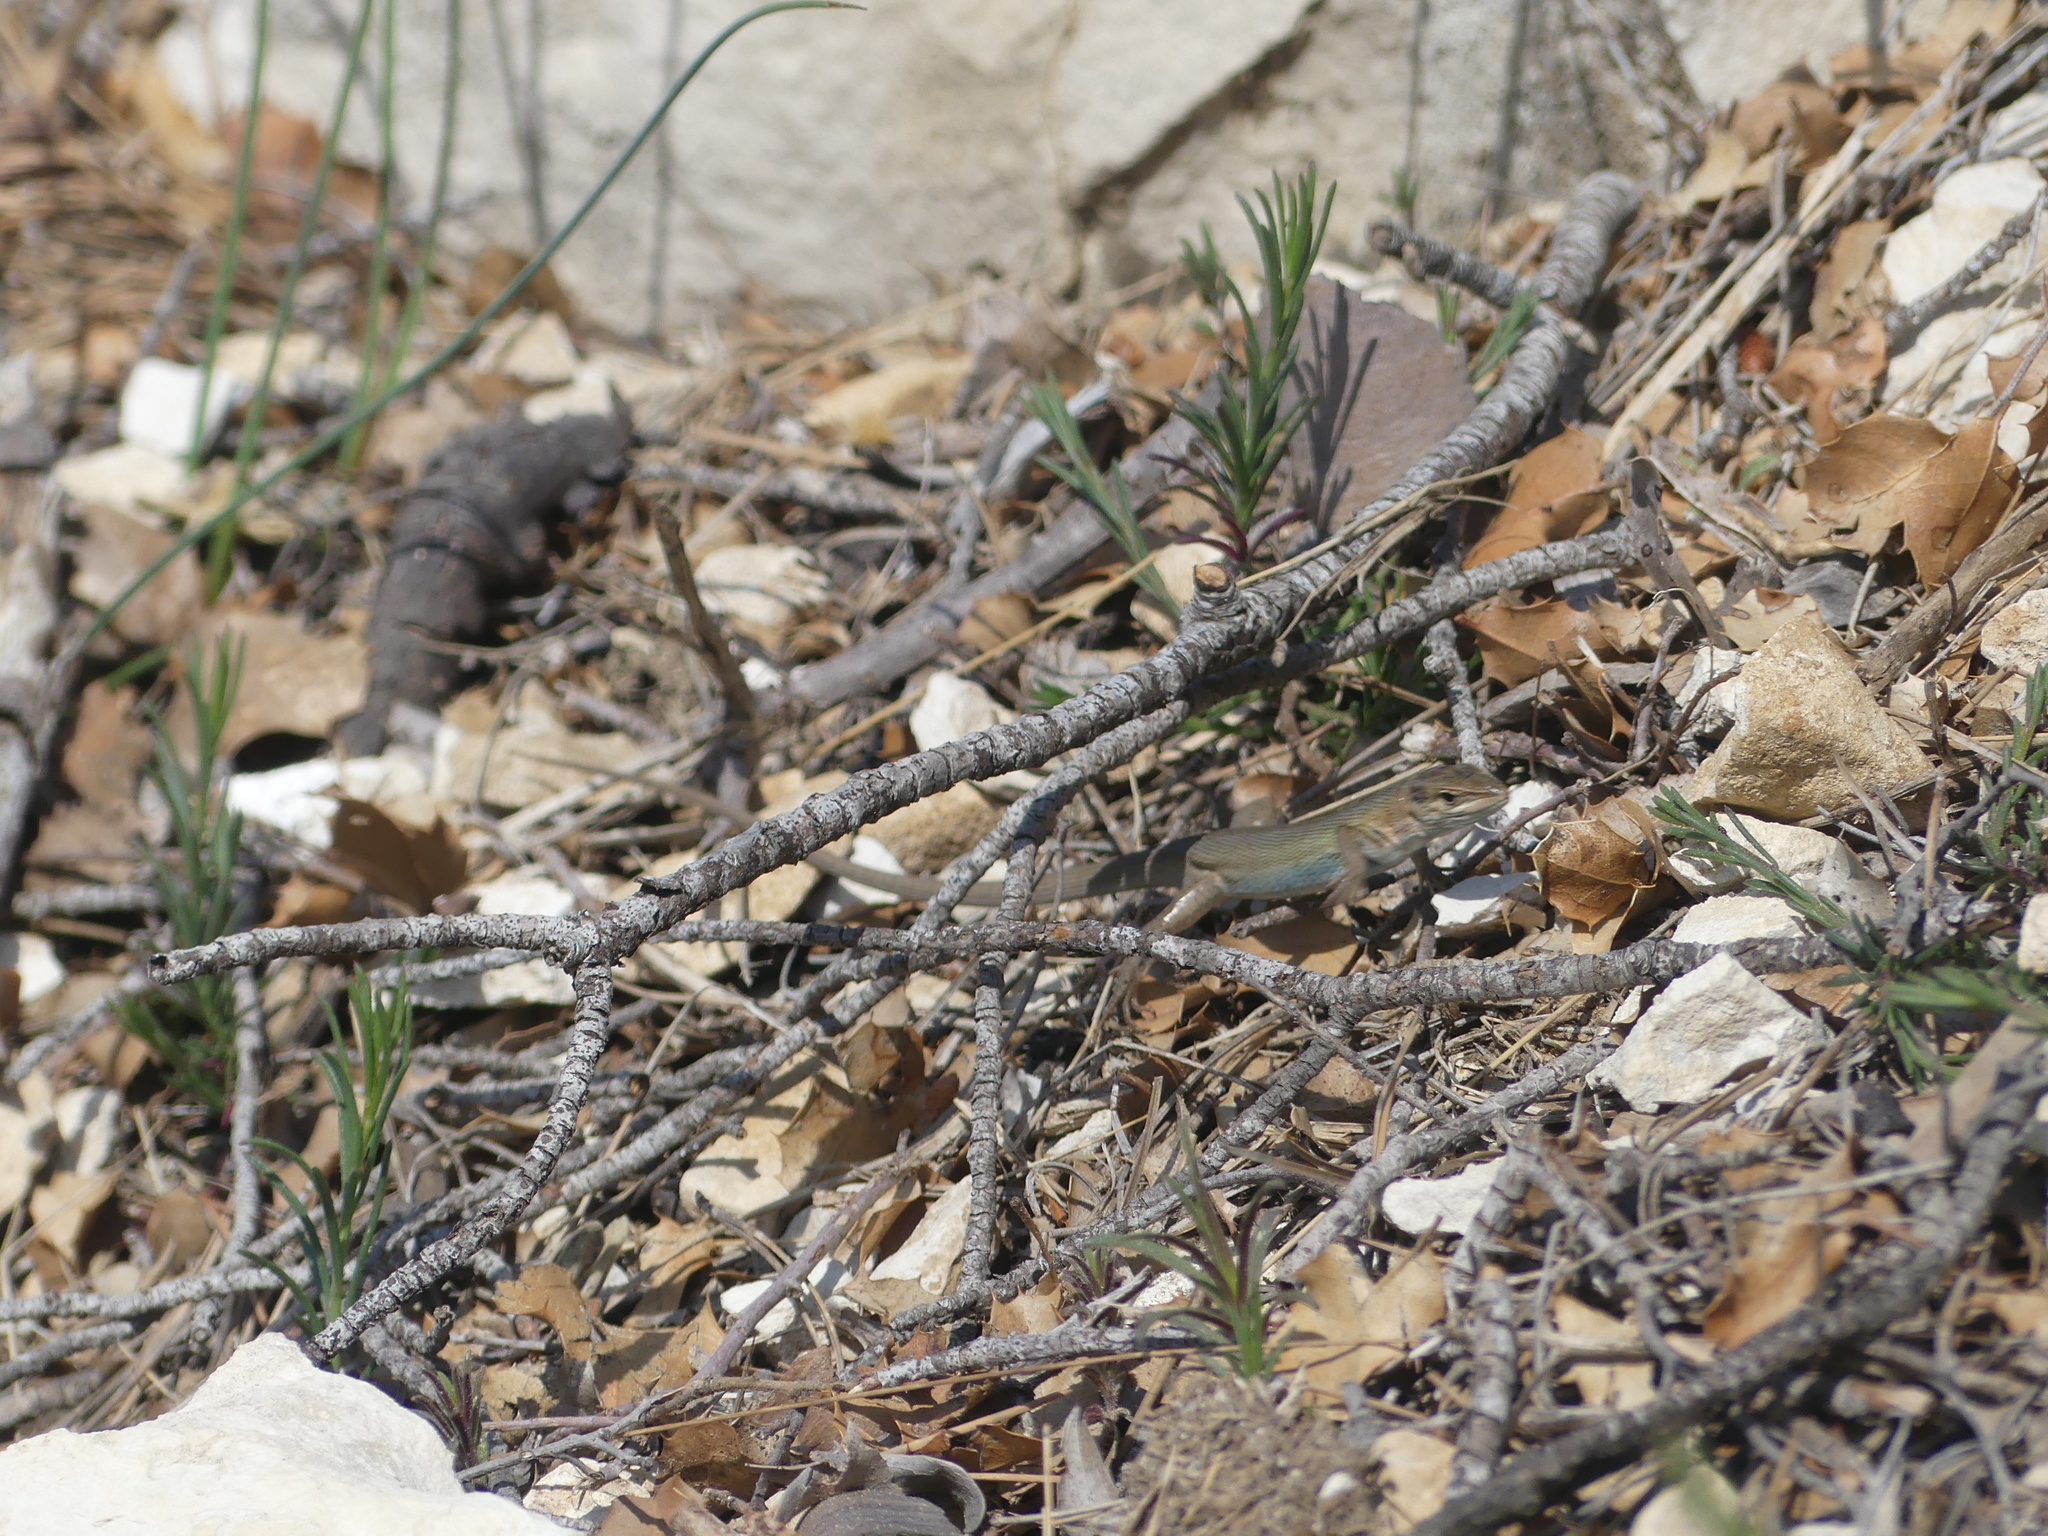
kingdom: Animalia
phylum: Chordata
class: Squamata
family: Lacertidae
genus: Psammodromus
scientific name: Psammodromus edwarsianus
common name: East iberian psammodromus
